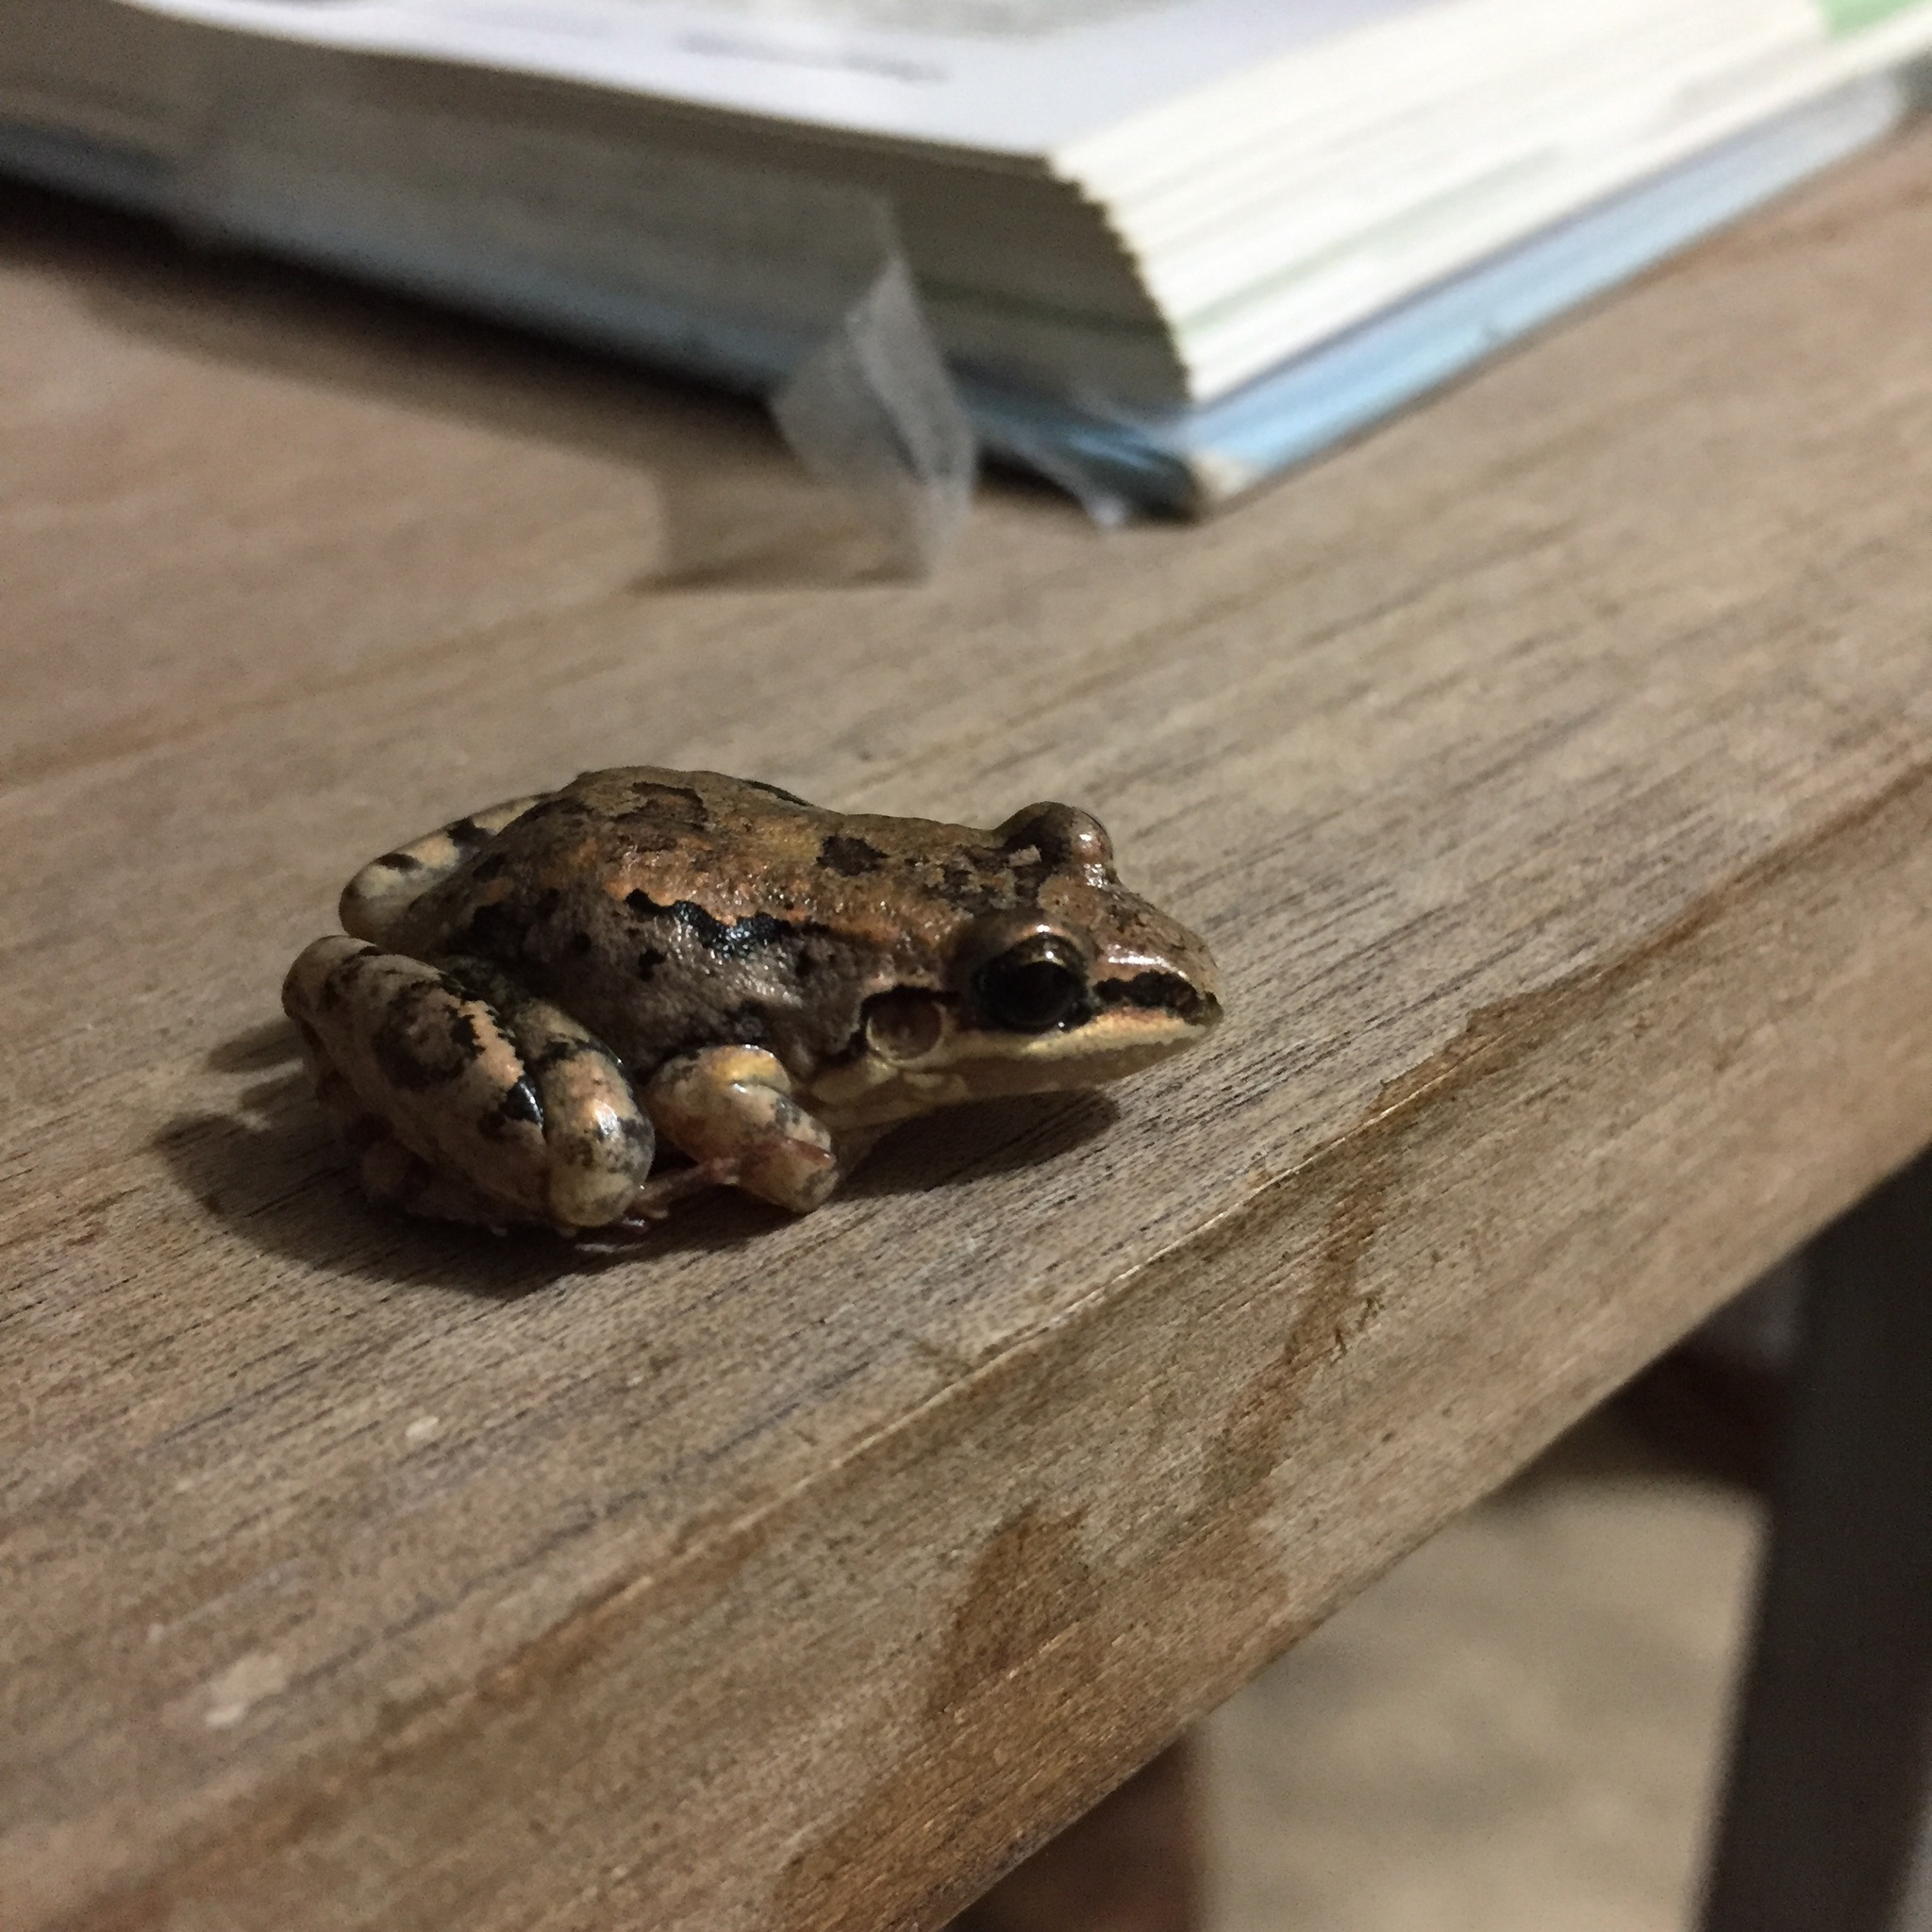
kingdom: Animalia
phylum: Chordata
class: Amphibia
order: Anura
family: Leptodactylidae
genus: Leptodactylus
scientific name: Leptodactylus fragilis
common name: Mexican white-lipped frog
